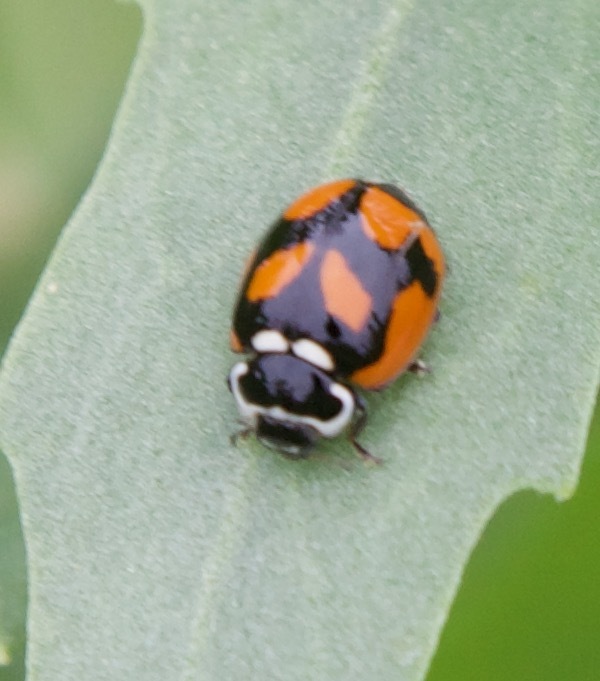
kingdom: Animalia
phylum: Arthropoda
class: Insecta
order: Coleoptera
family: Coccinellidae
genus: Adalia
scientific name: Adalia deficiens
